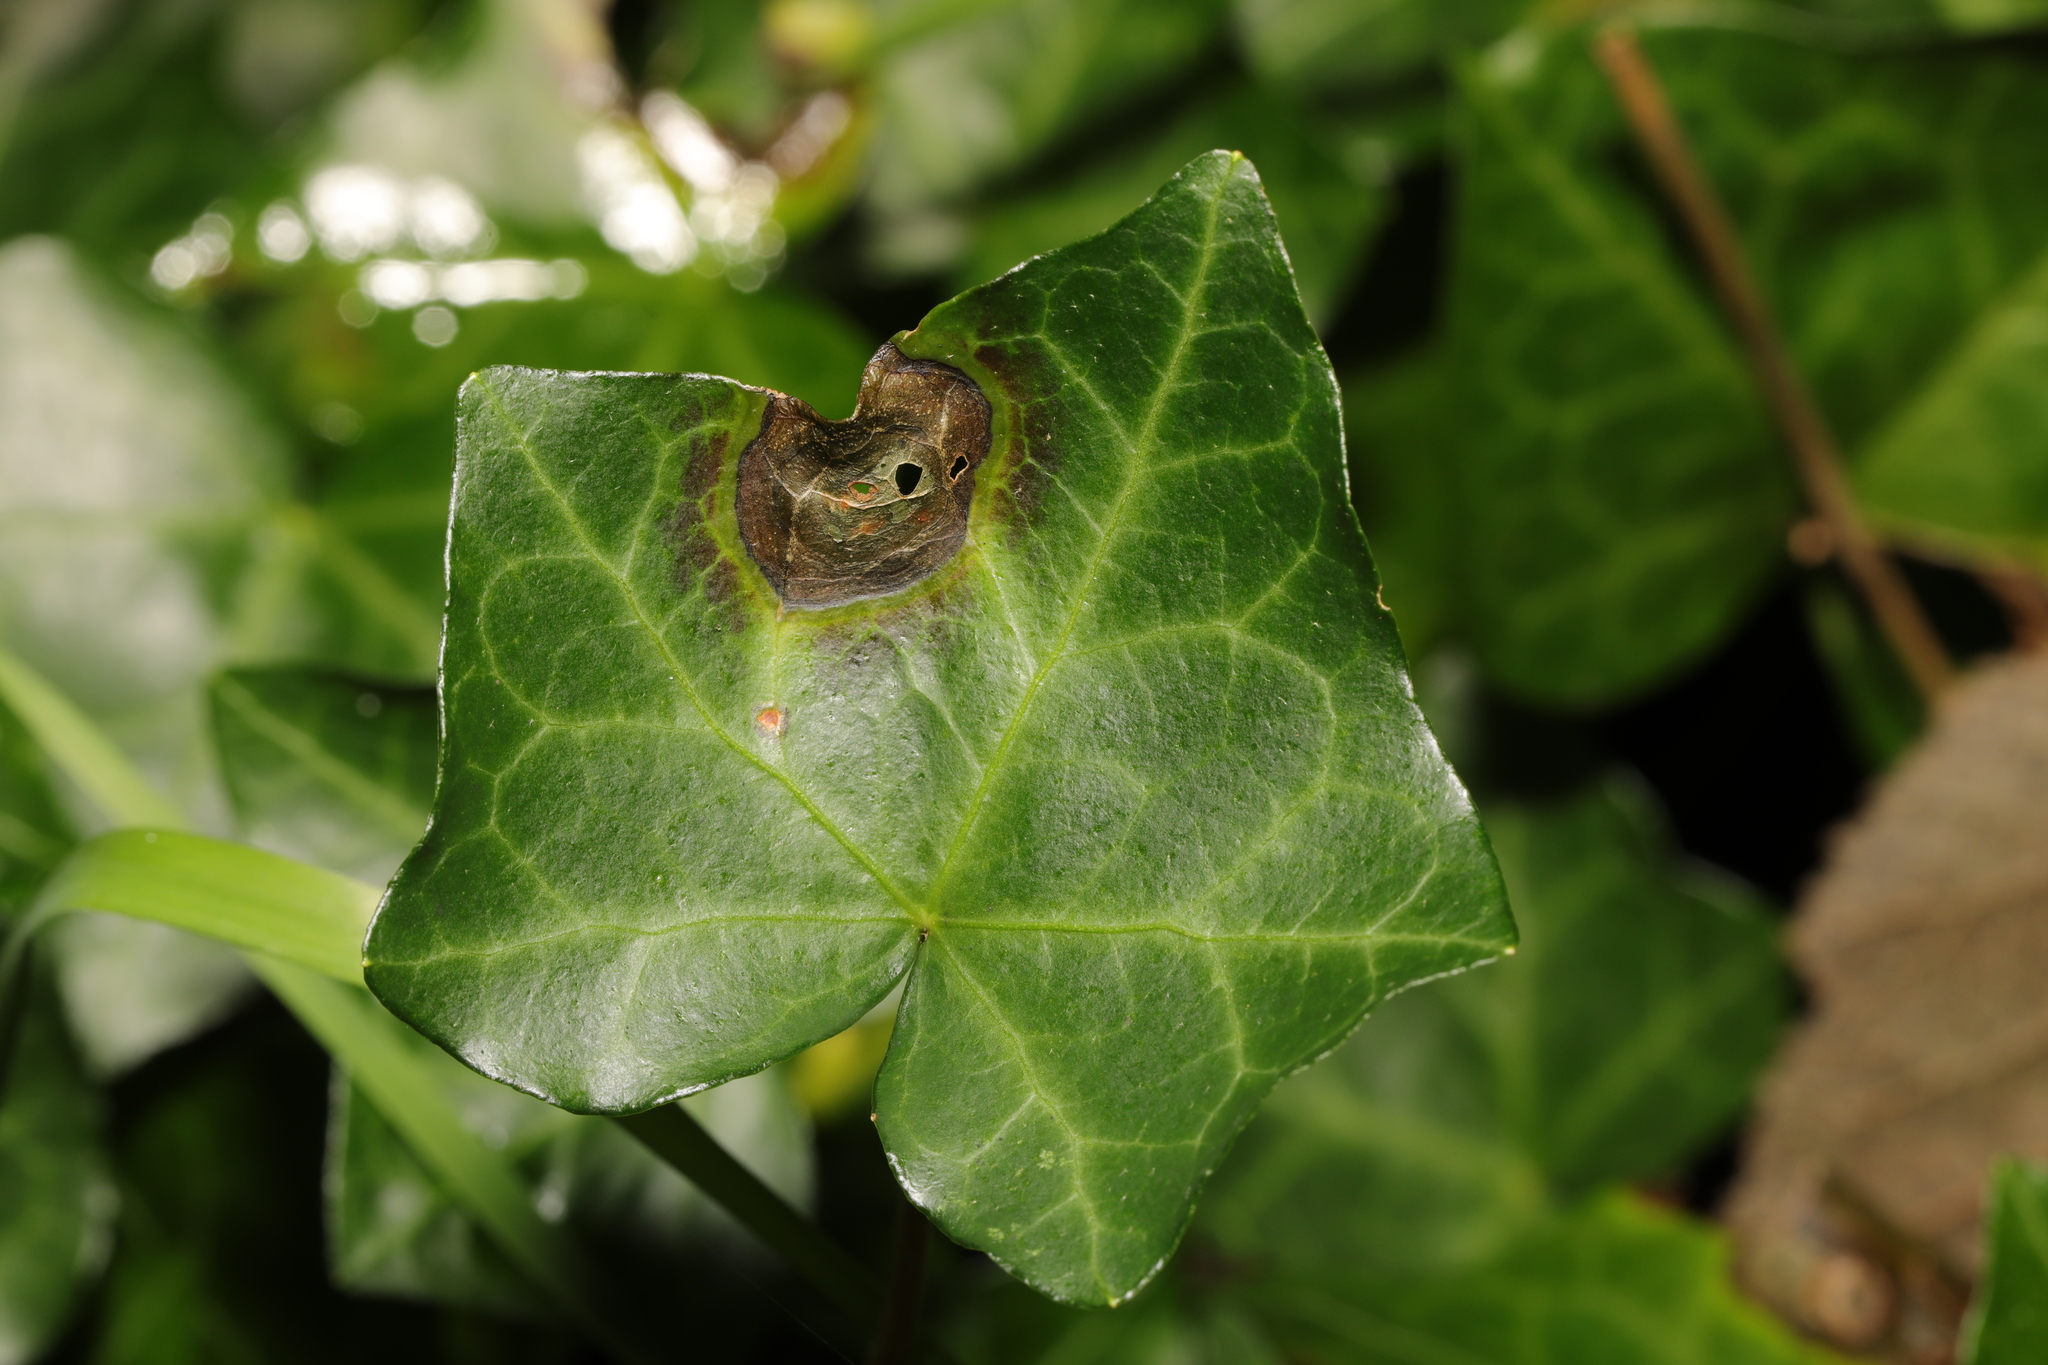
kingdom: Fungi
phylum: Ascomycota
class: Dothideomycetes
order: Pleosporales
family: Didymellaceae
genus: Boeremia
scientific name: Boeremia hedericola
